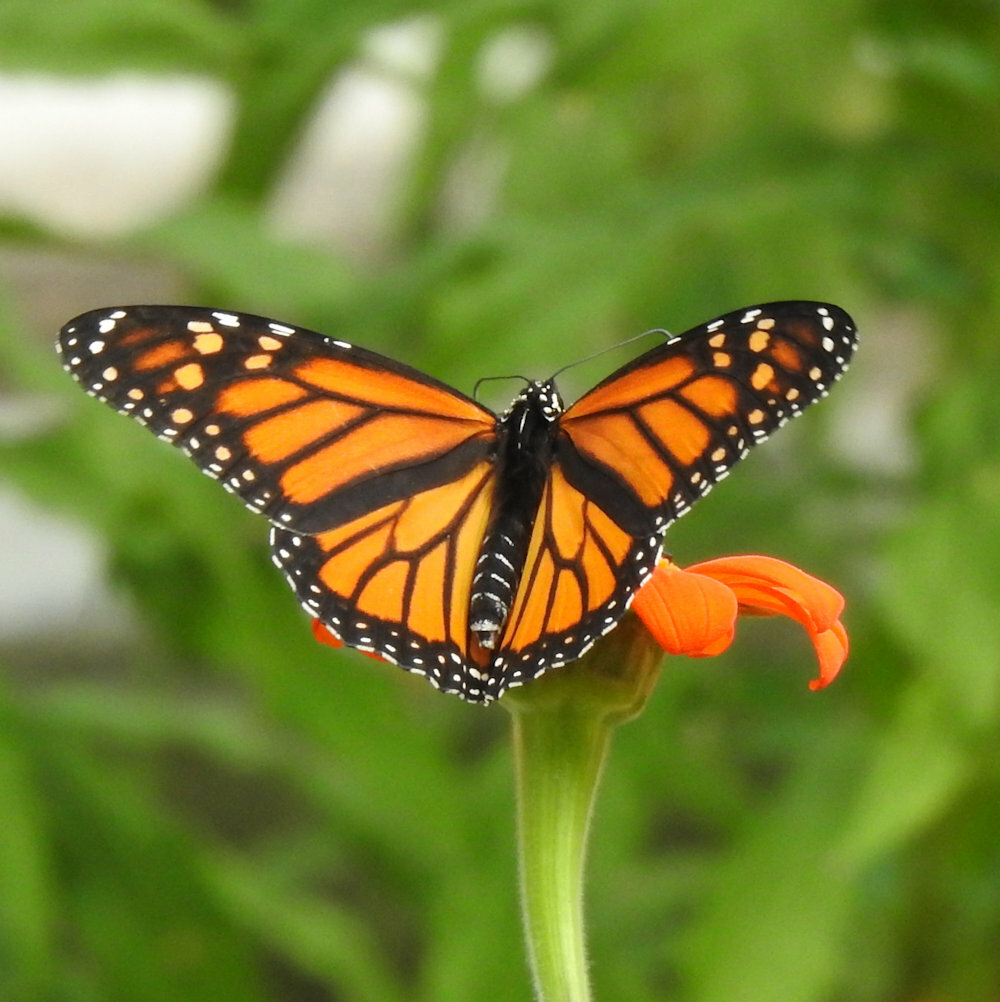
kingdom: Animalia
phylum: Arthropoda
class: Insecta
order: Lepidoptera
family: Nymphalidae
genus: Danaus
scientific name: Danaus plexippus
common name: Monarch
